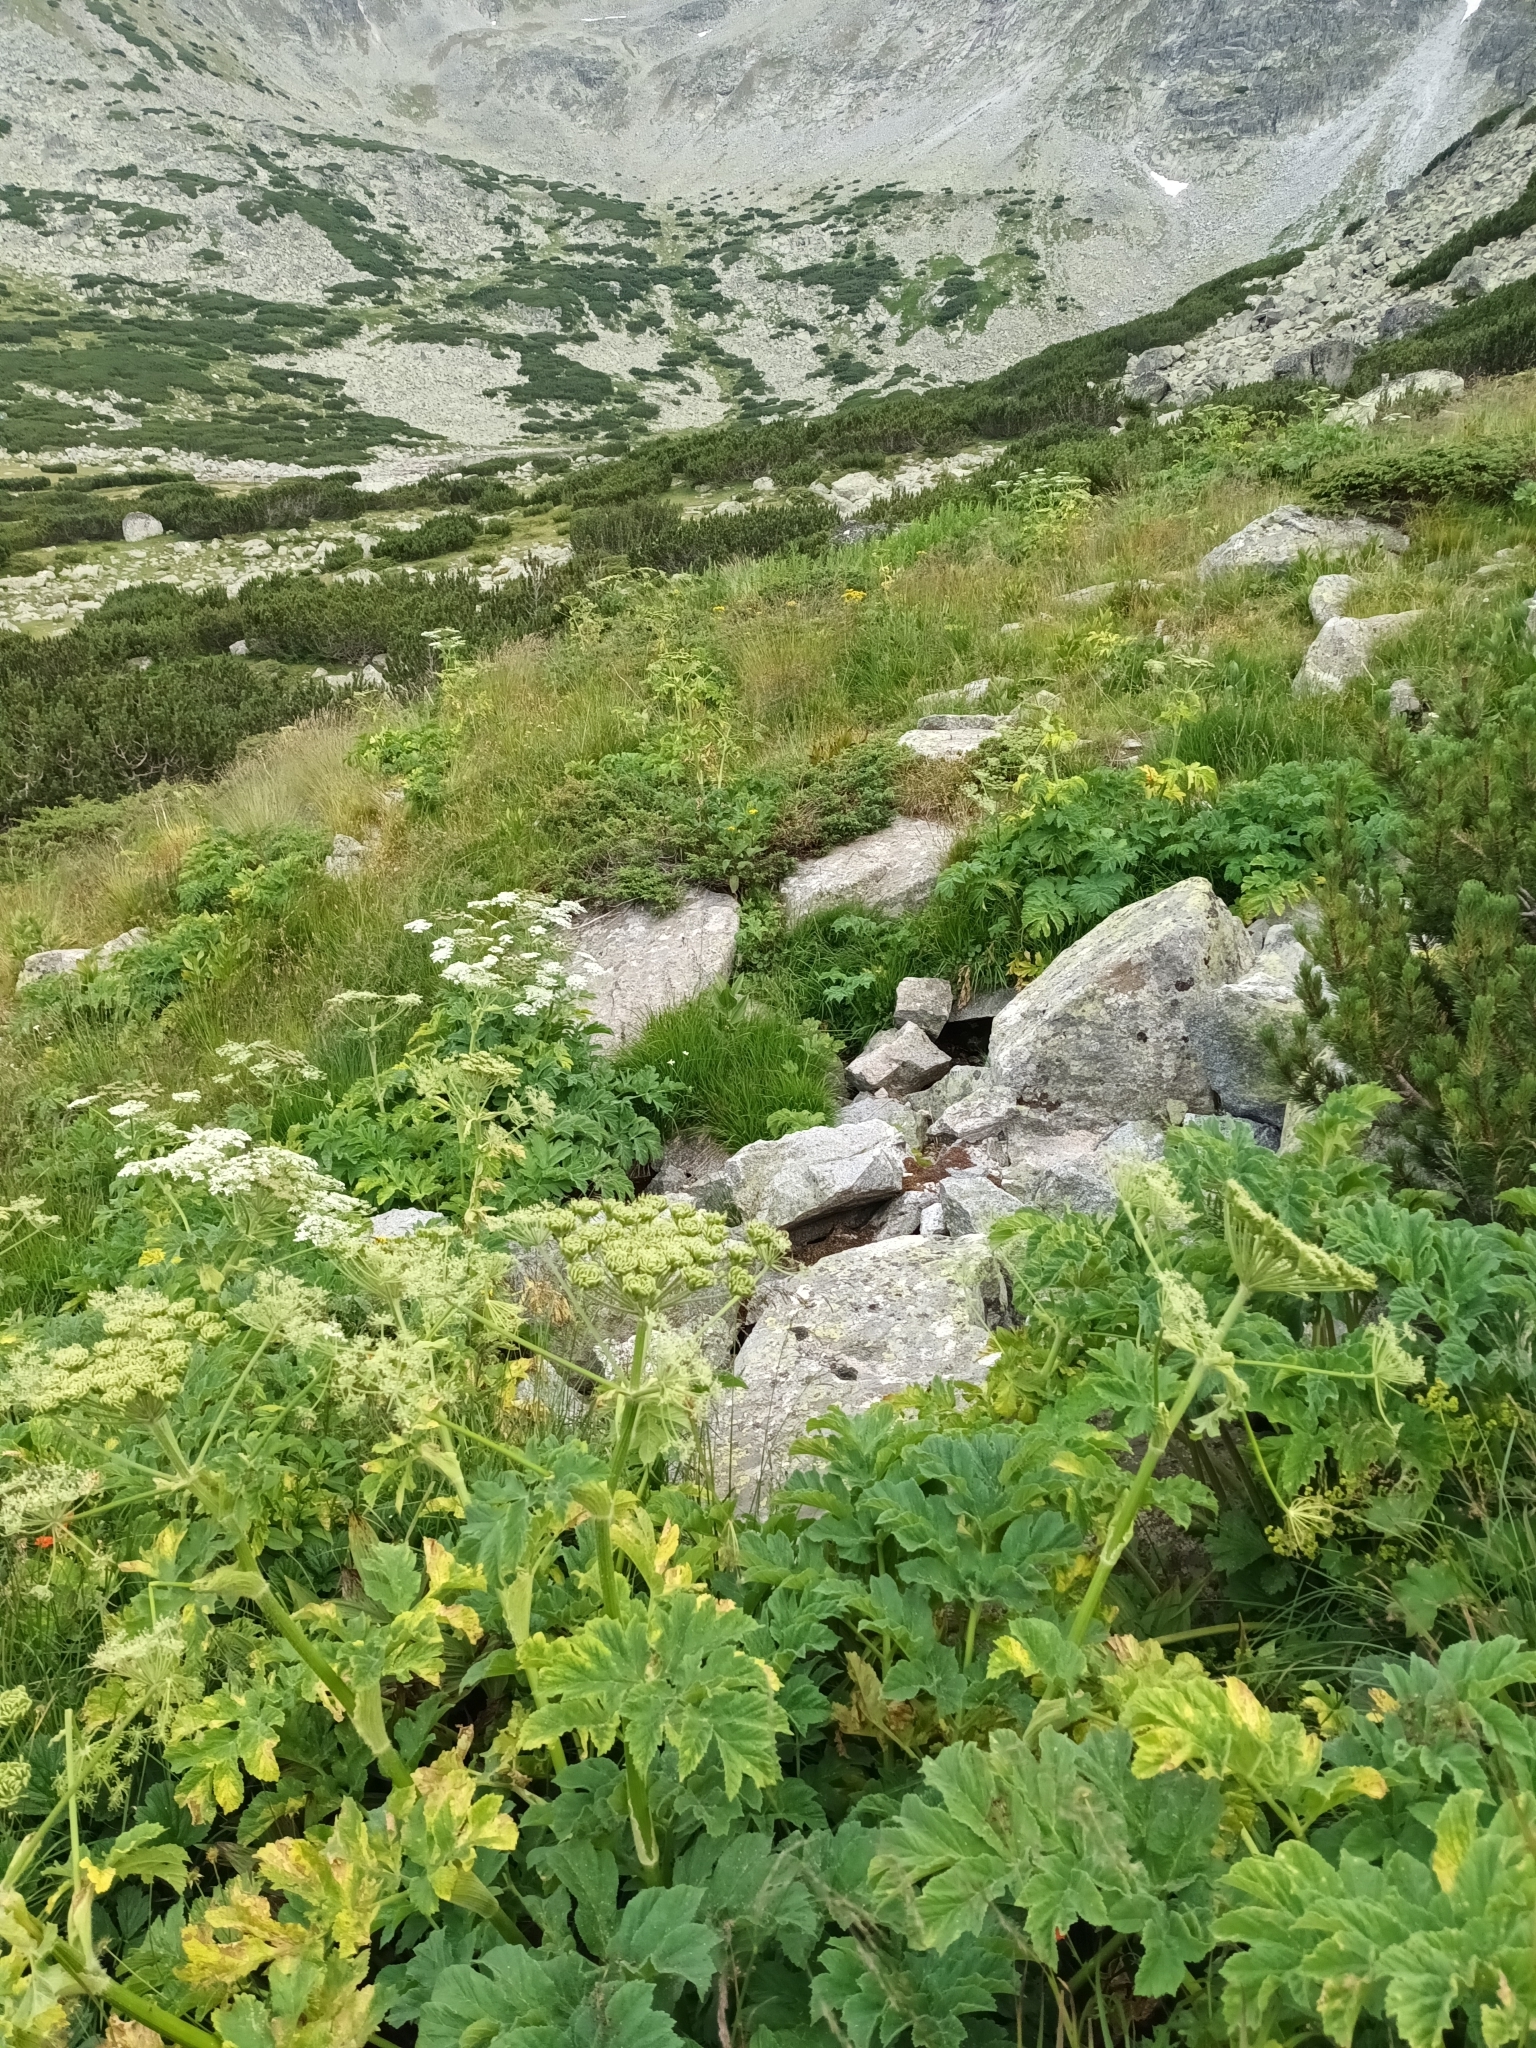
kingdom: Plantae
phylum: Tracheophyta
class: Magnoliopsida
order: Apiales
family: Apiaceae
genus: Heracleum
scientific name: Heracleum sphondylium
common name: Hogweed
